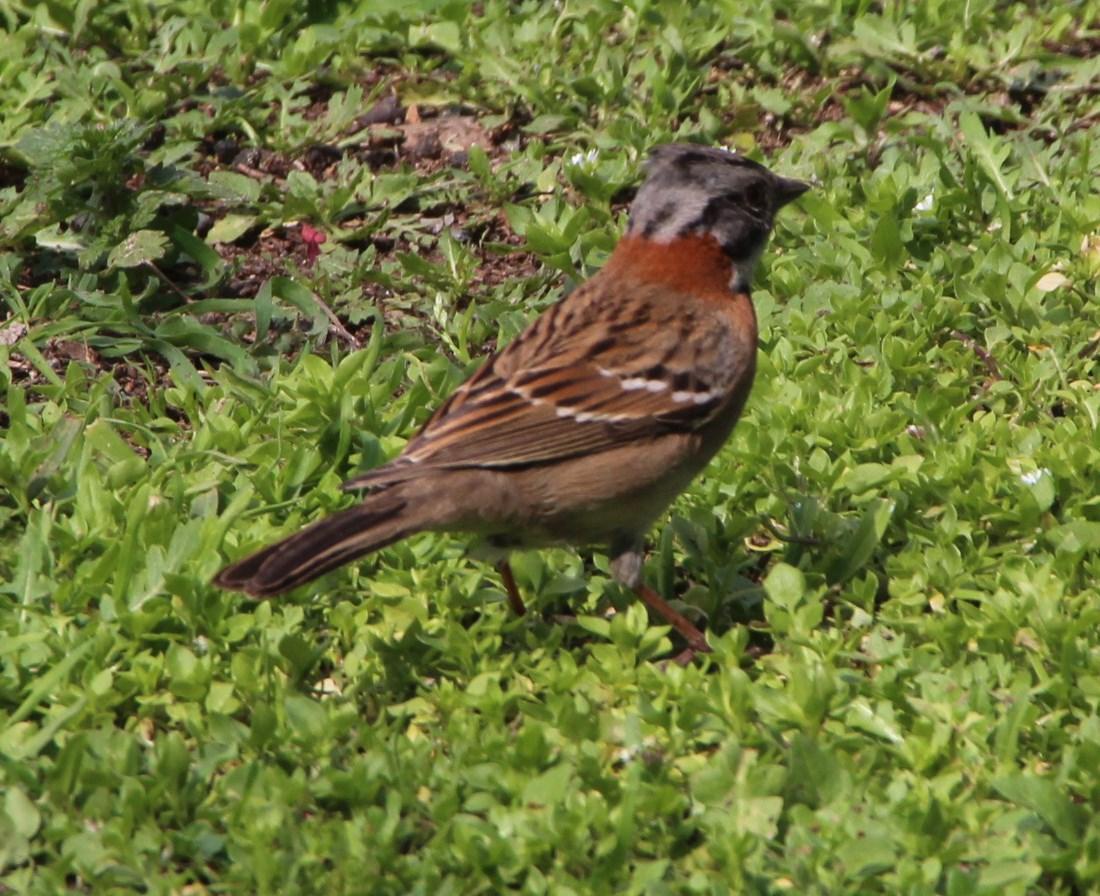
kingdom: Animalia
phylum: Chordata
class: Aves
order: Passeriformes
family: Passerellidae
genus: Zonotrichia
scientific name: Zonotrichia capensis
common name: Rufous-collared sparrow
